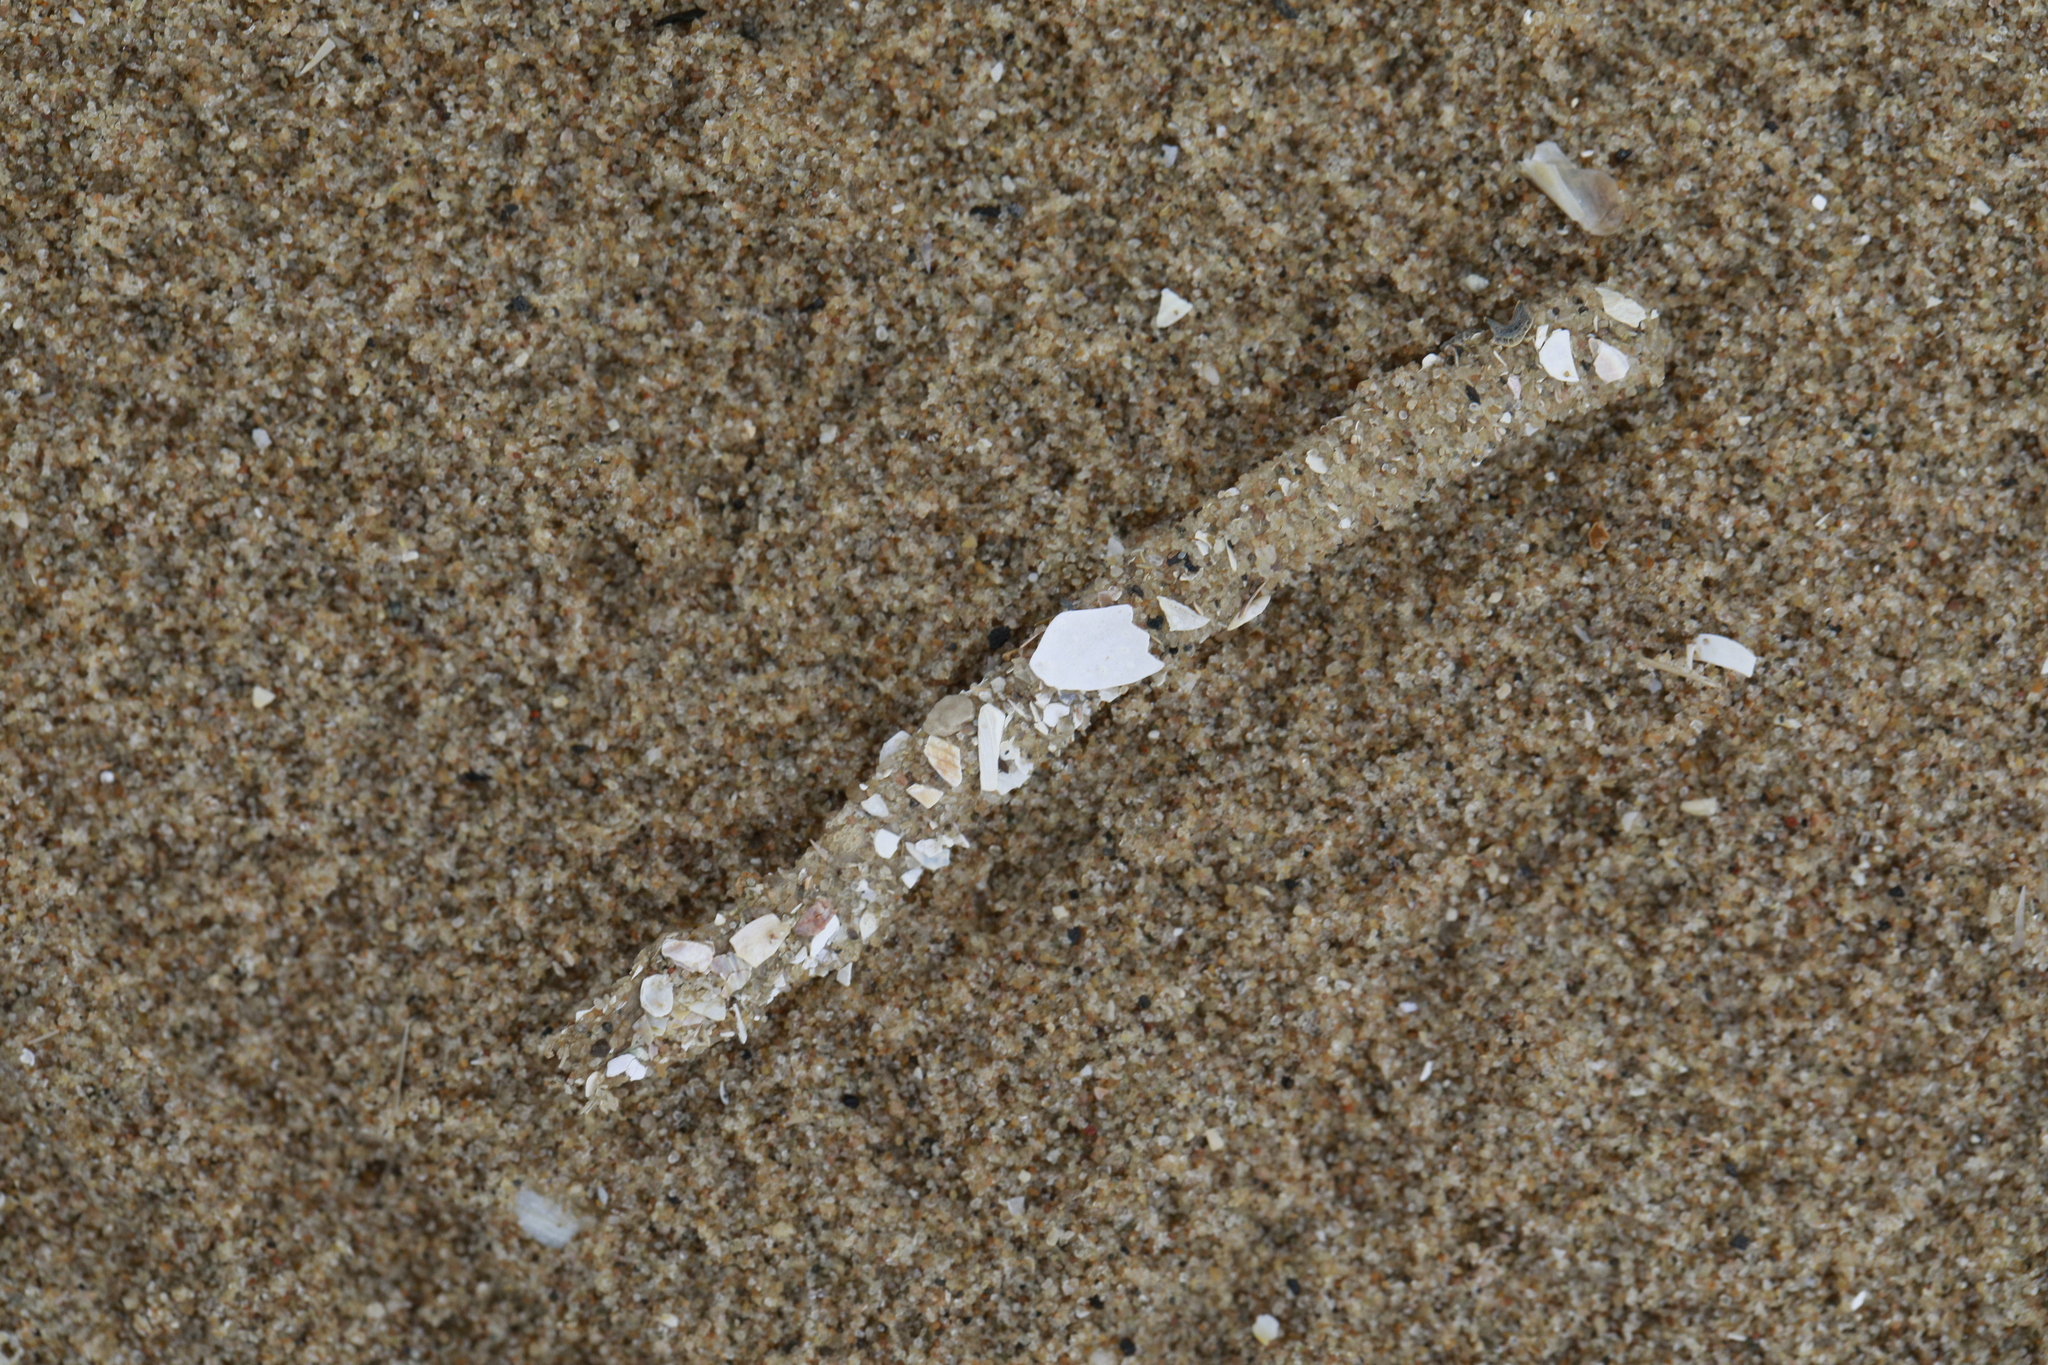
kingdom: Animalia
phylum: Annelida
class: Polychaeta
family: Terebellidae
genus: Lanice
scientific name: Lanice conchilega
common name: Sand mason
